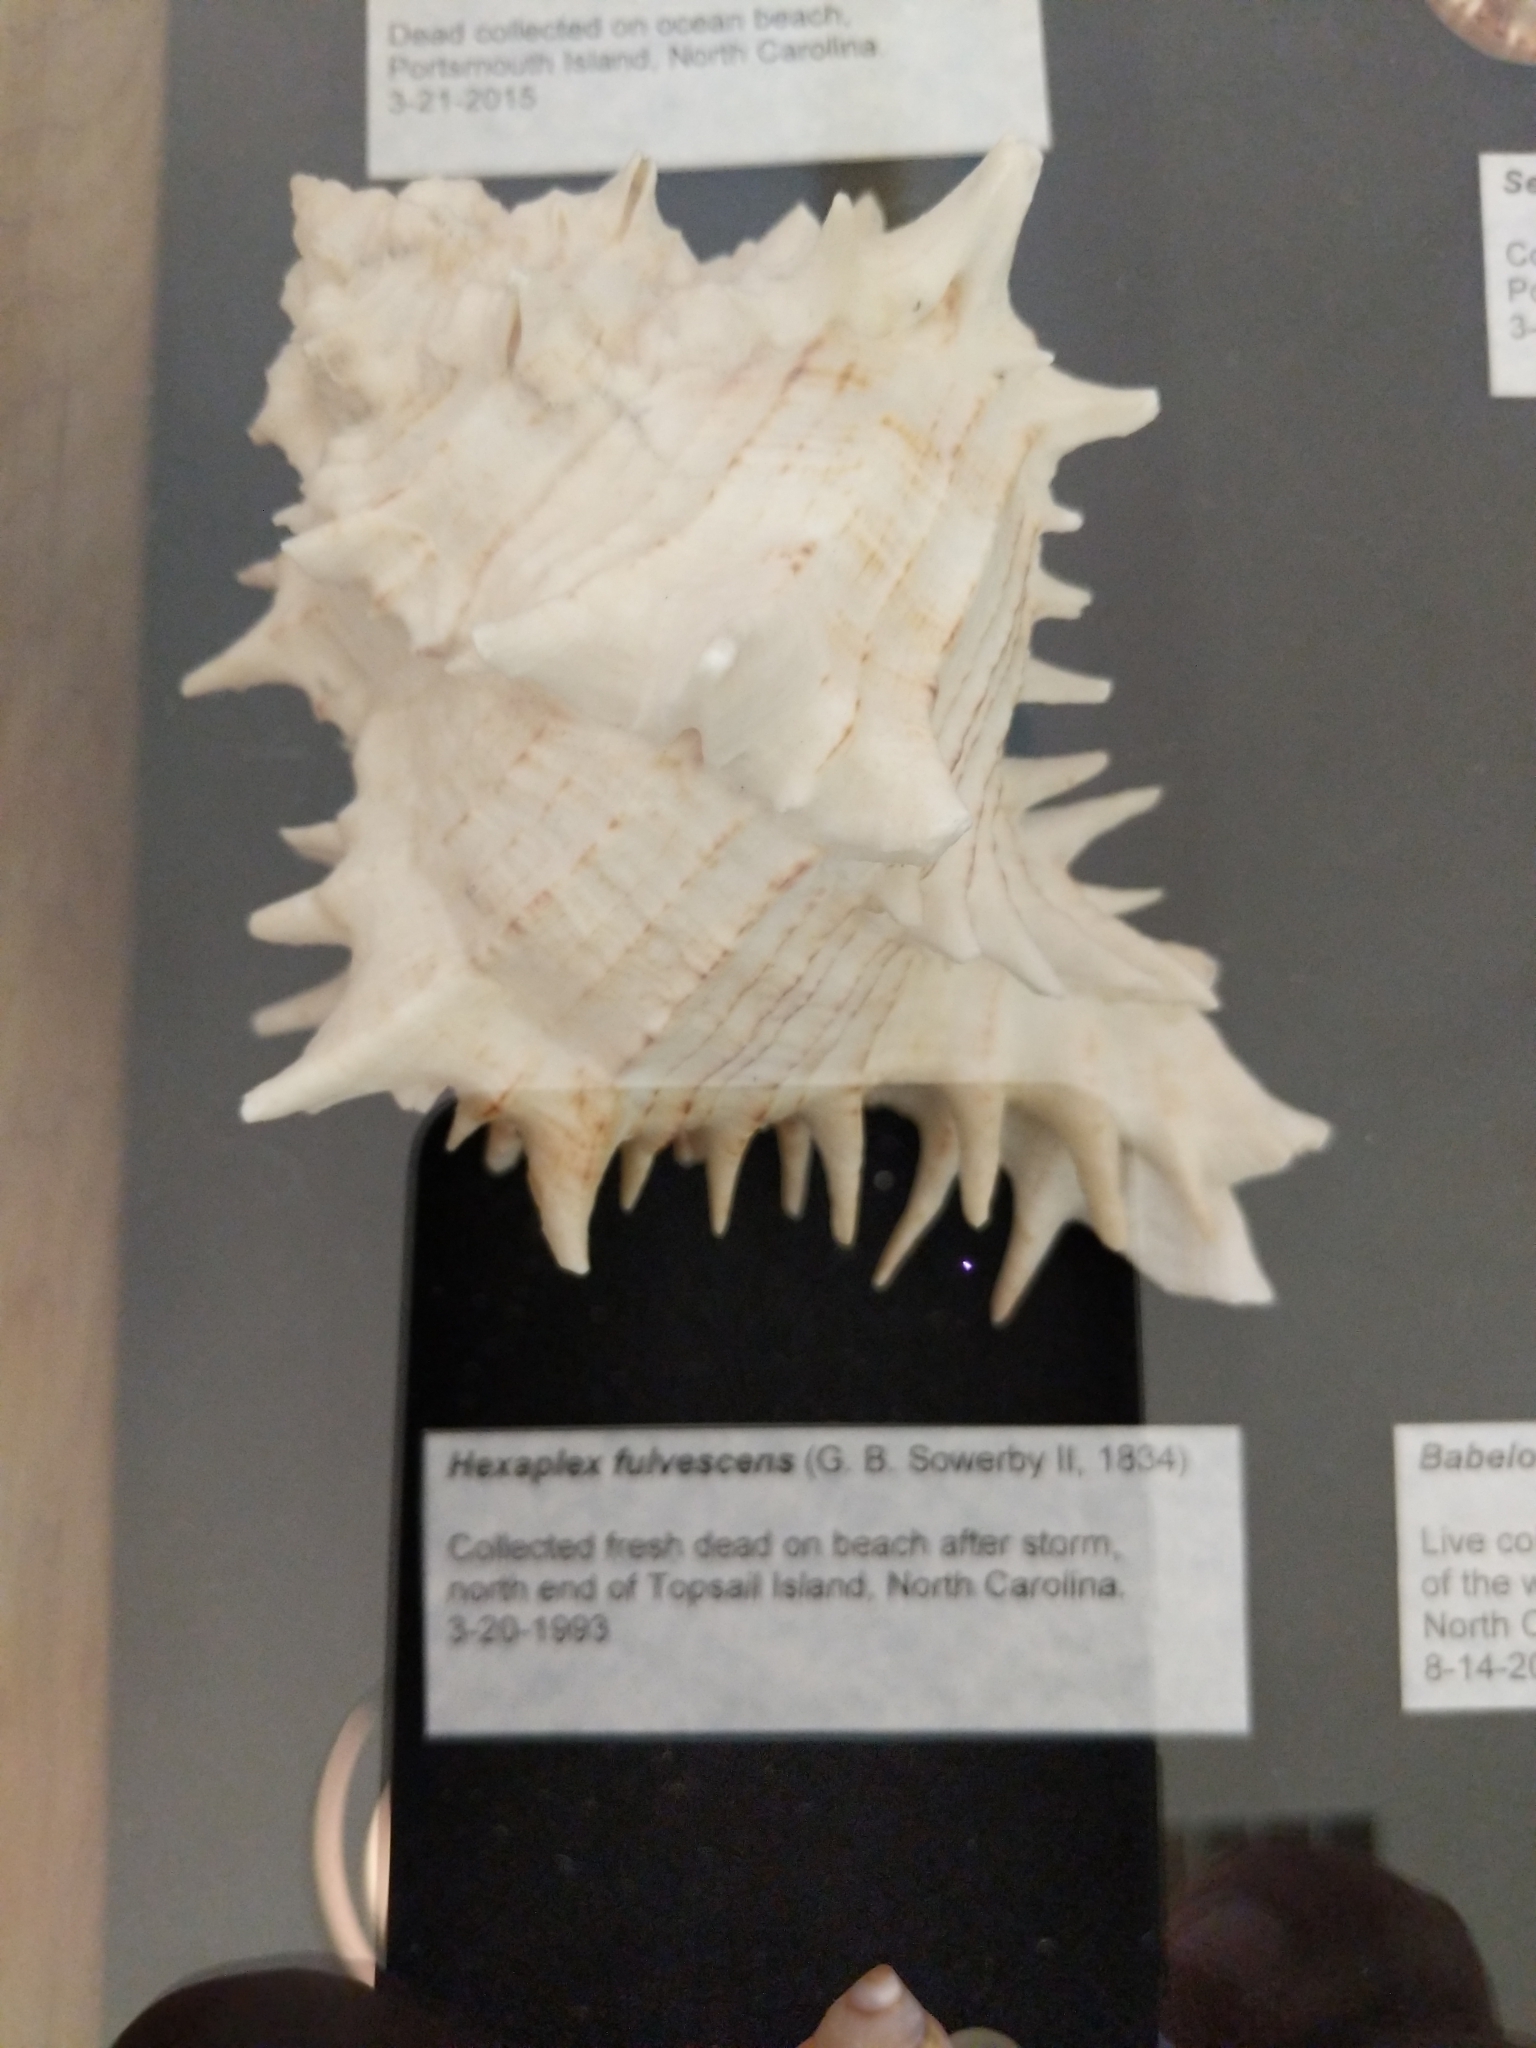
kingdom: Animalia
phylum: Mollusca
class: Gastropoda
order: Neogastropoda
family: Muricidae
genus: Hexaplex
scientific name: Hexaplex fulvescens
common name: Tawny murex
